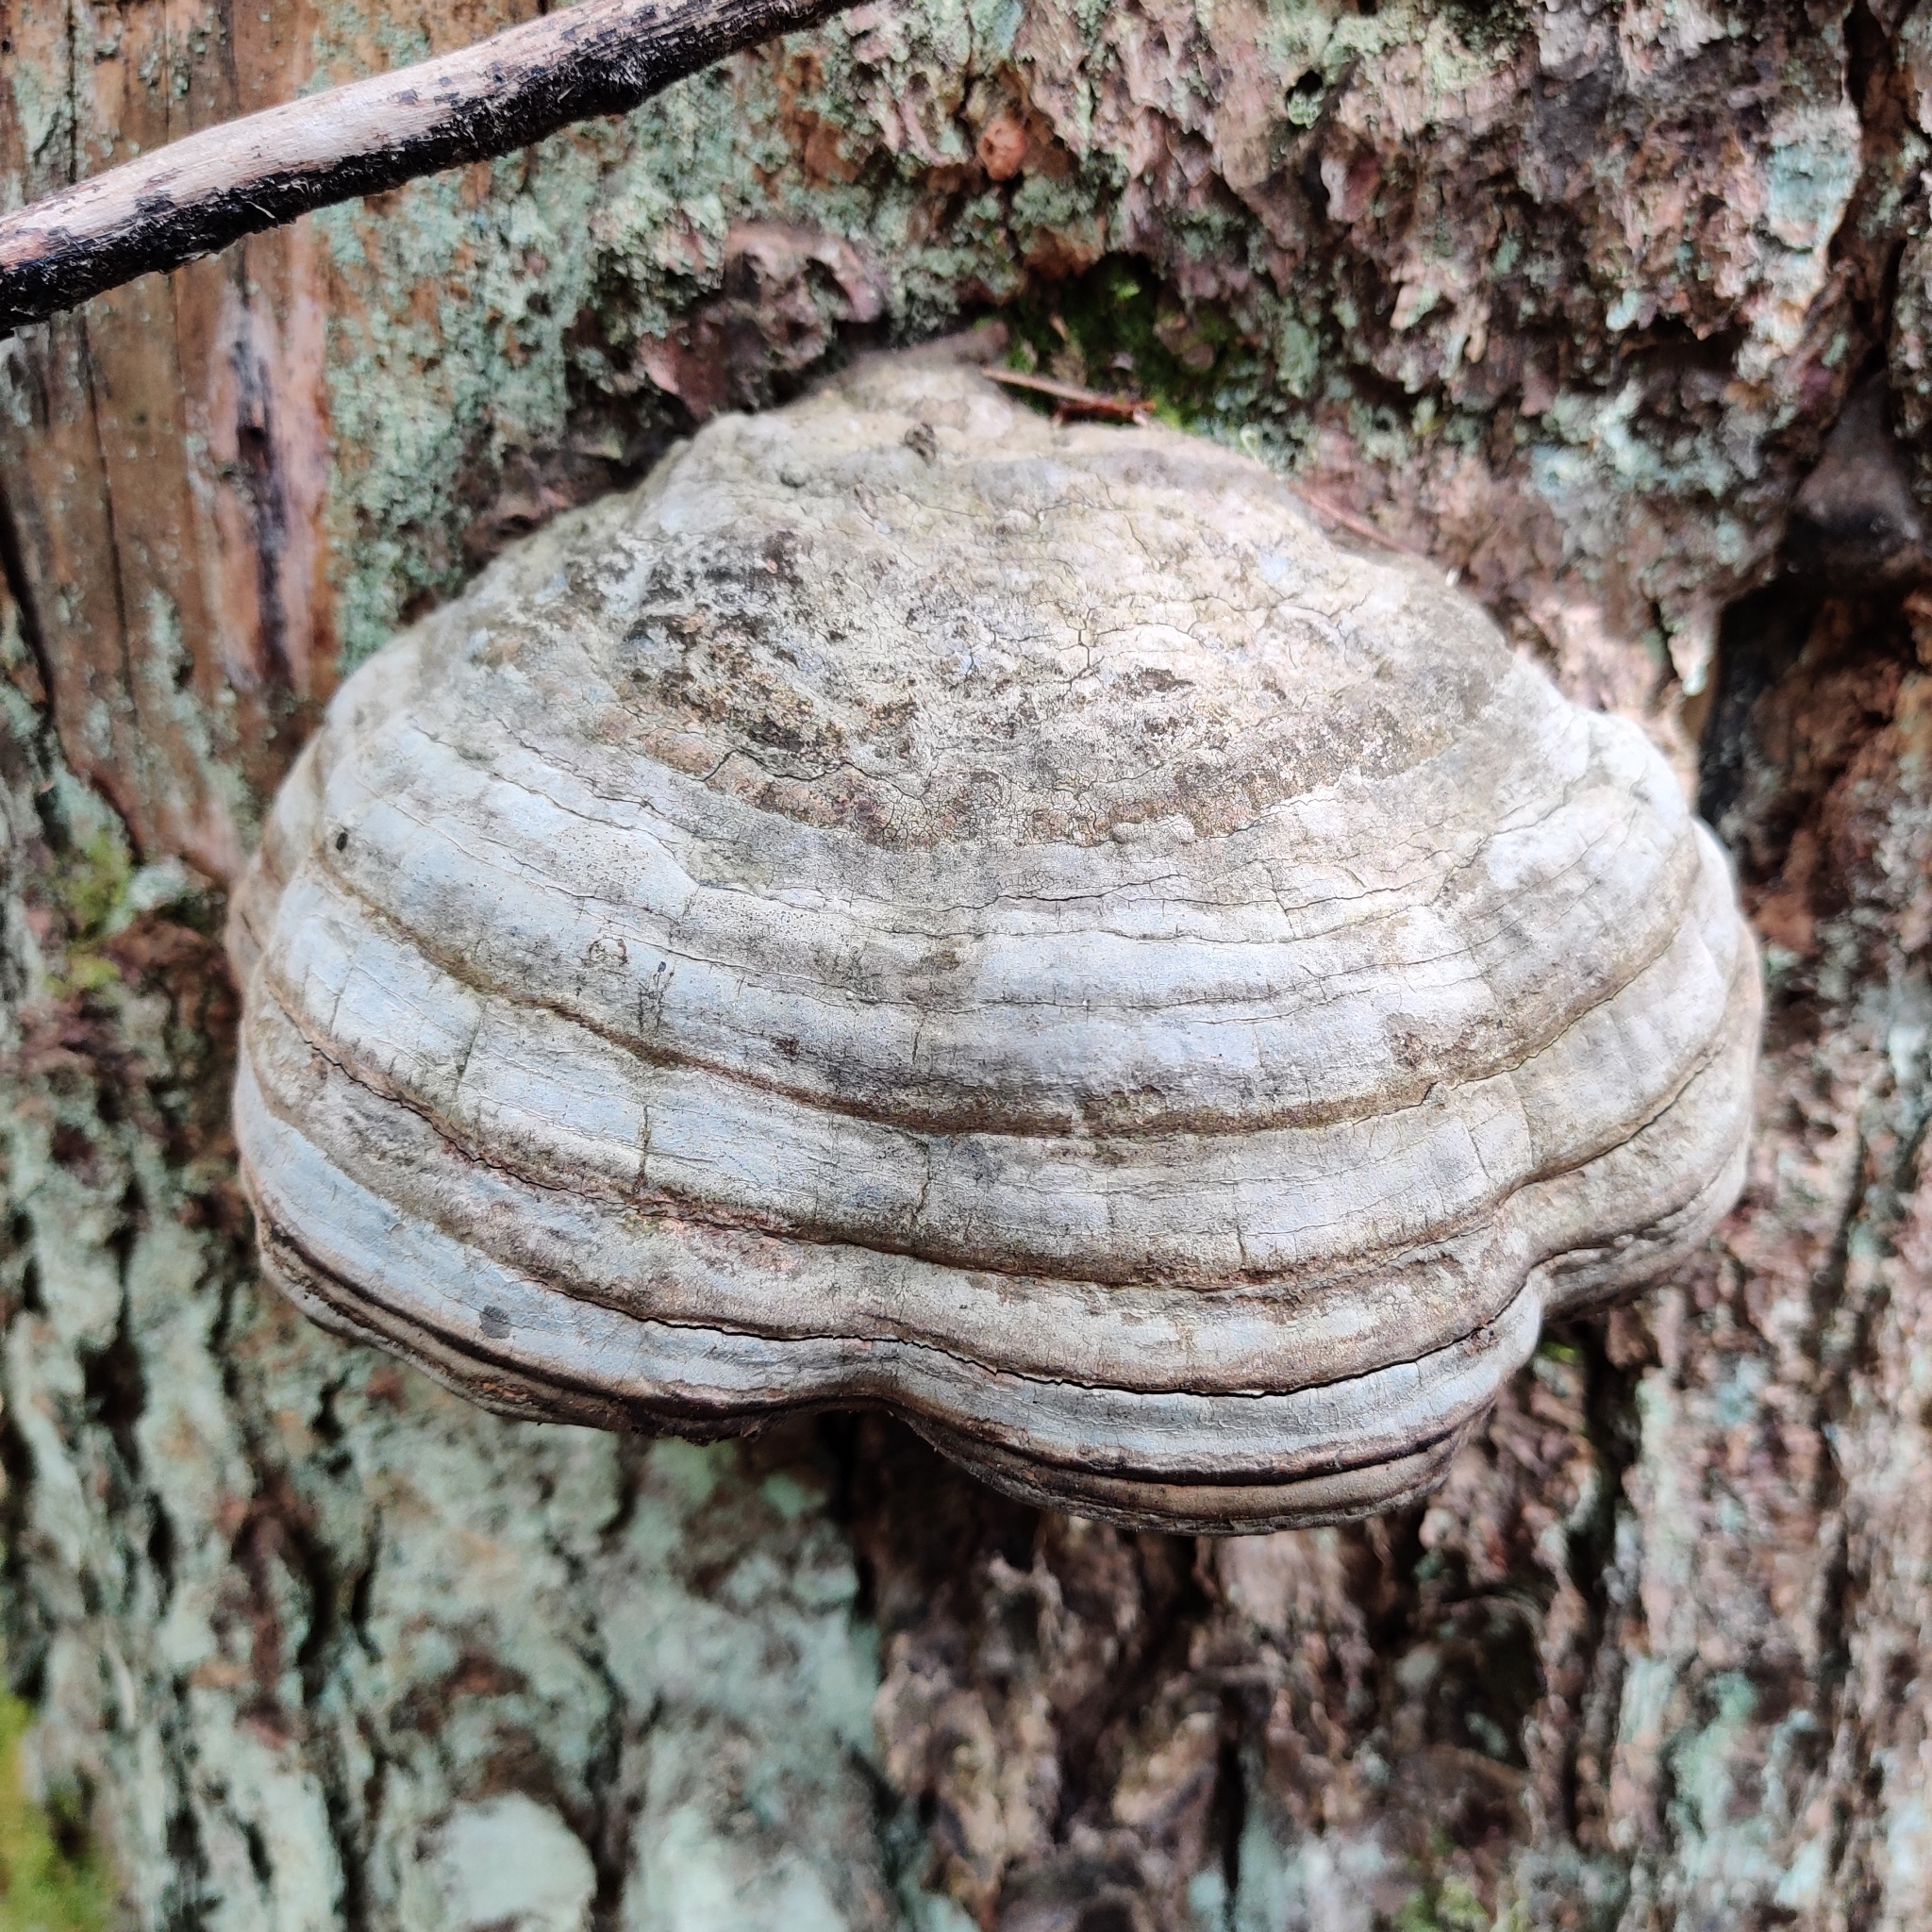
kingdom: Fungi
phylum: Basidiomycota
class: Agaricomycetes
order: Polyporales
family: Polyporaceae
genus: Fomes
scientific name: Fomes fomentarius
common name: Hoof fungus
